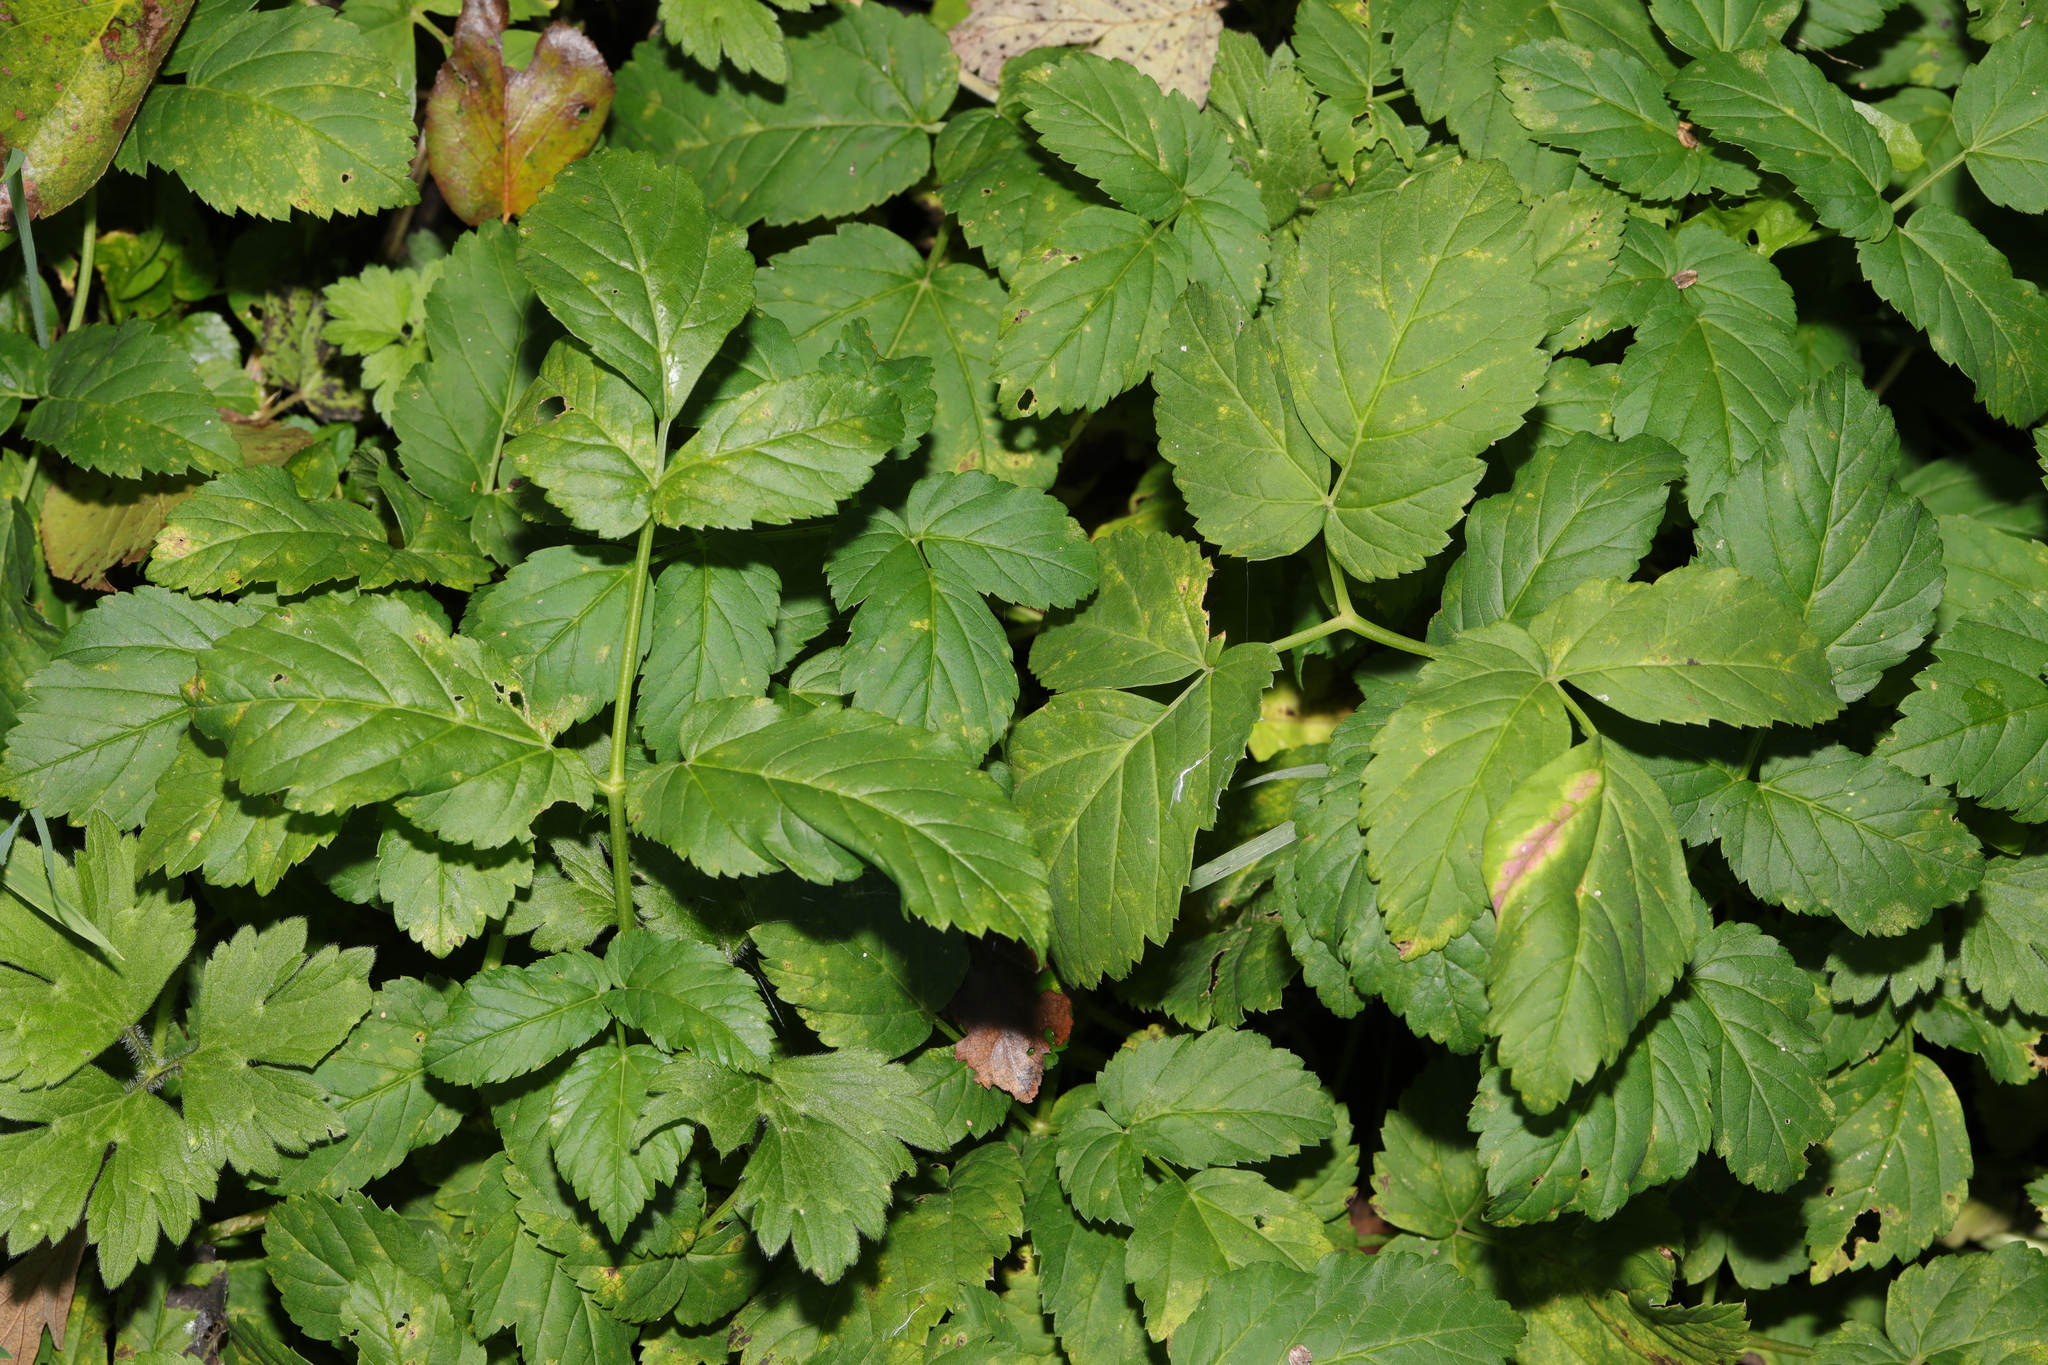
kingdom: Plantae
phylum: Tracheophyta
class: Magnoliopsida
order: Apiales
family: Apiaceae
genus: Aegopodium
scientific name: Aegopodium podagraria
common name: Ground-elder
